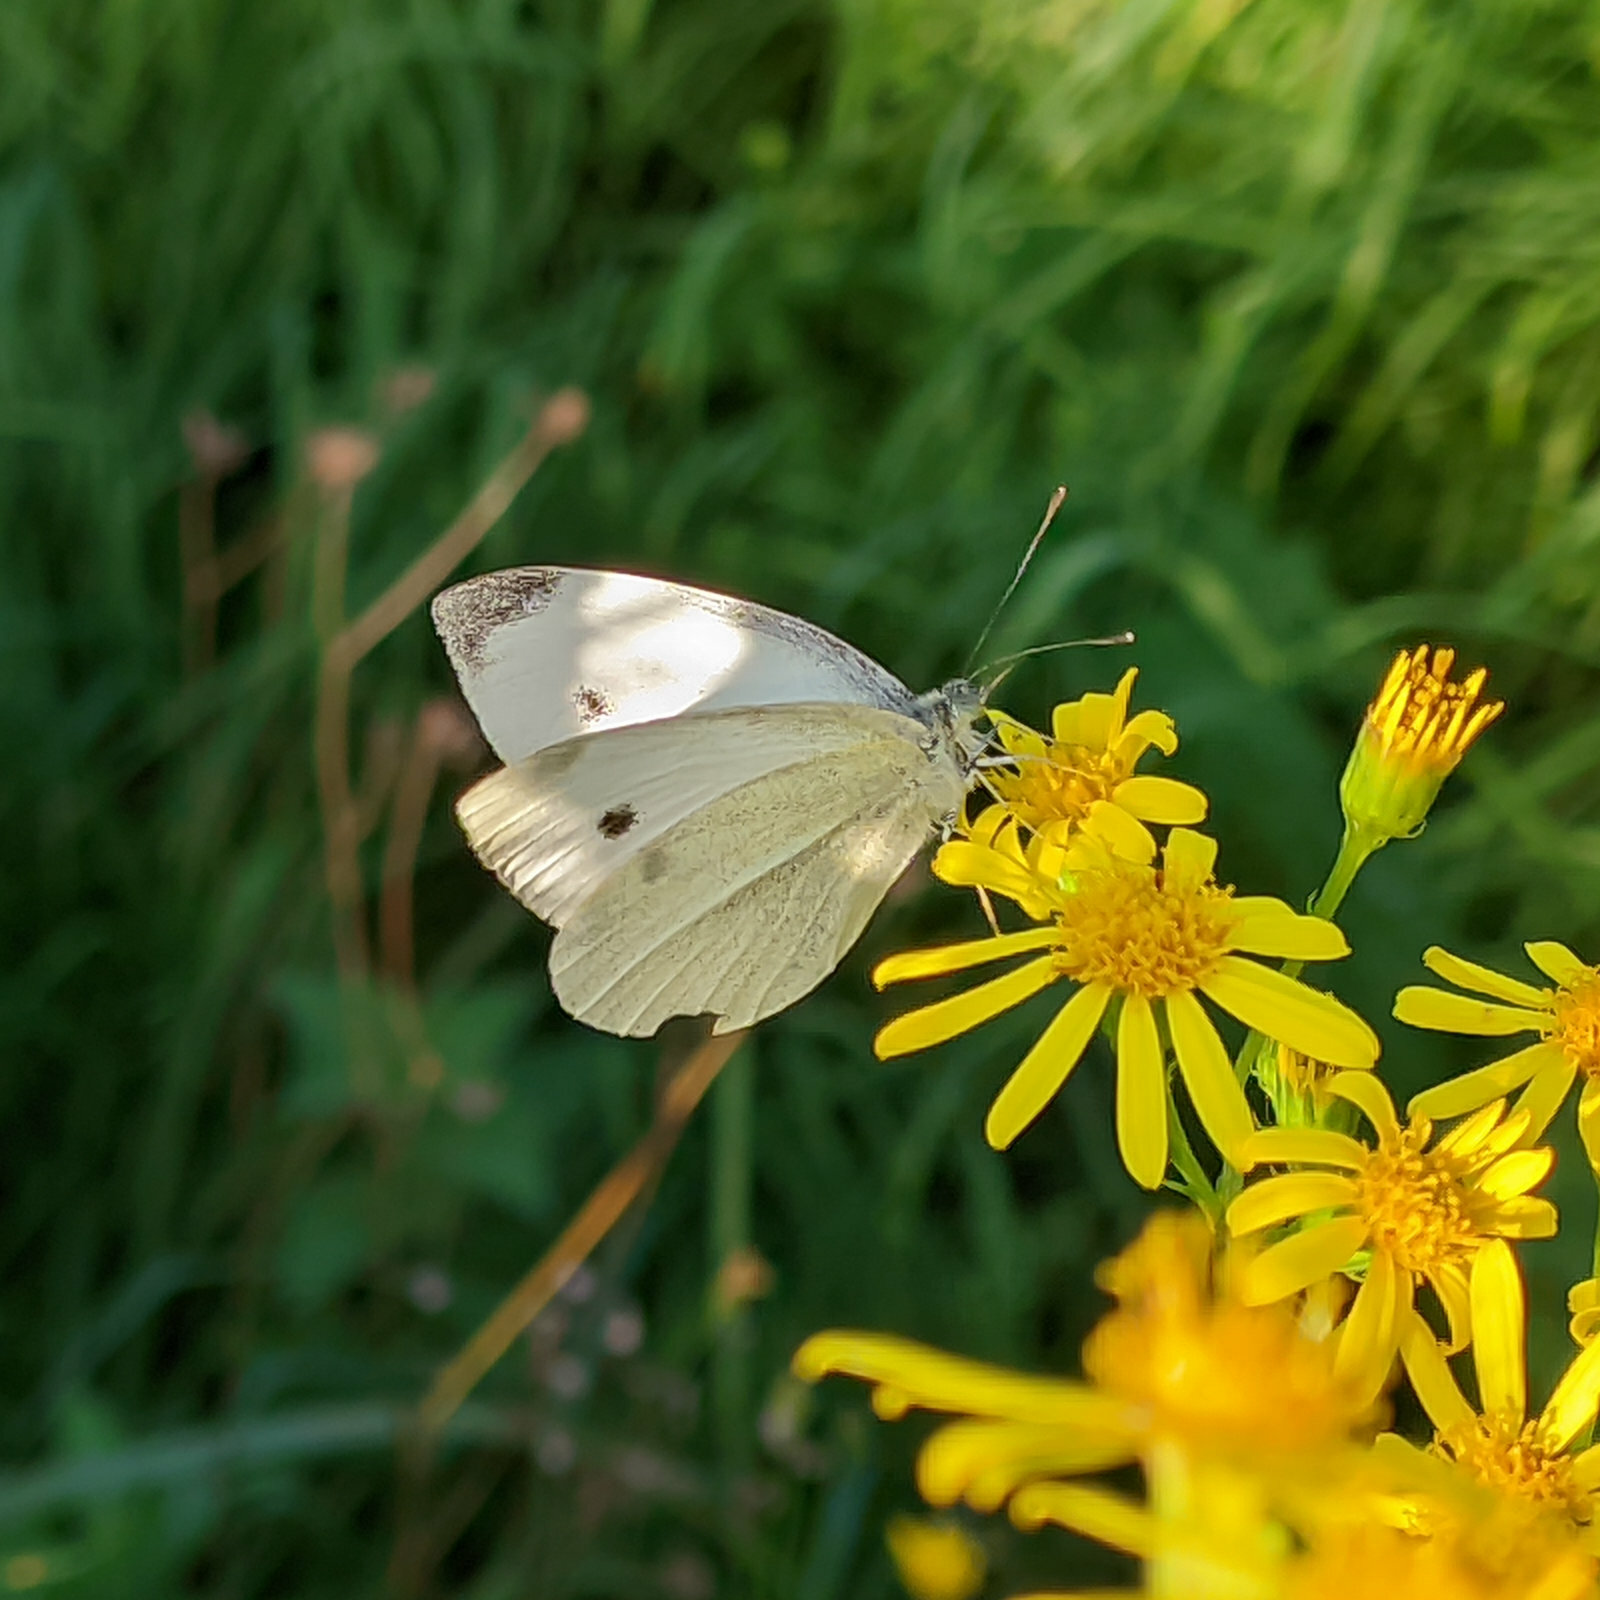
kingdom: Animalia
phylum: Arthropoda
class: Insecta
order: Lepidoptera
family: Pieridae
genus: Pieris
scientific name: Pieris rapae
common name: Small white
